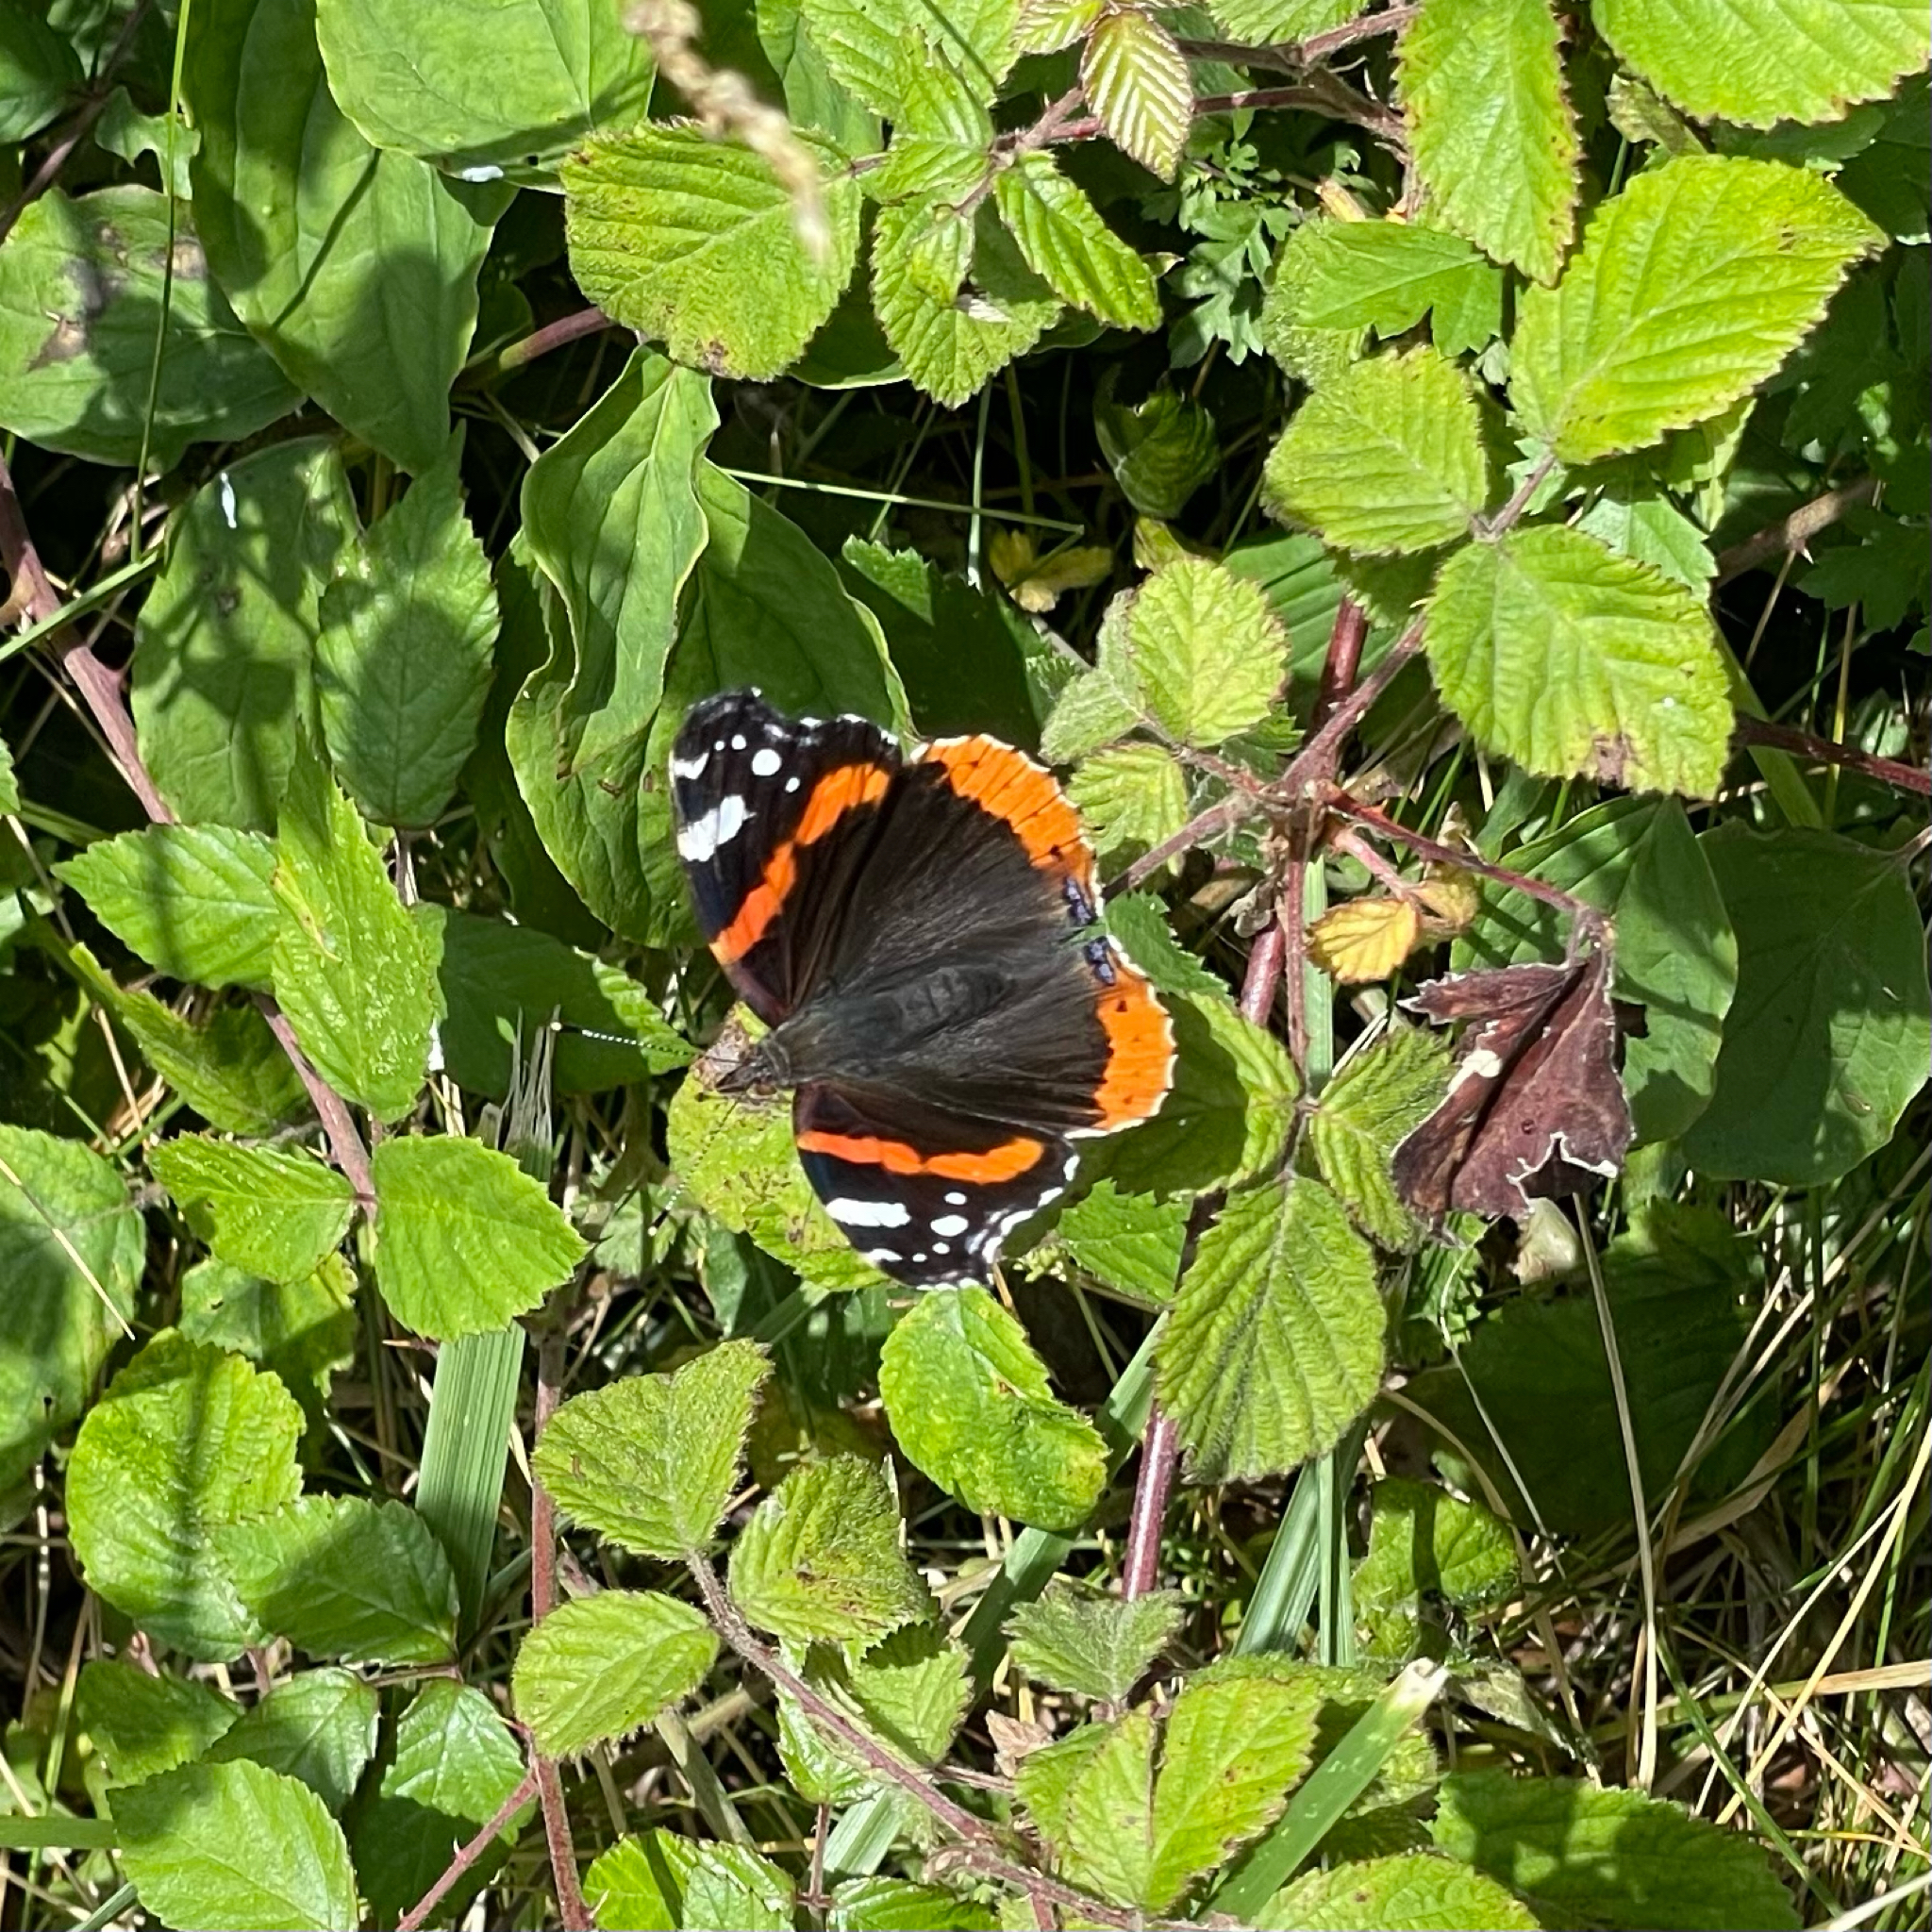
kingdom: Animalia
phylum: Arthropoda
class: Insecta
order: Lepidoptera
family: Nymphalidae
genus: Vanessa
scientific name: Vanessa atalanta
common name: Red admiral
